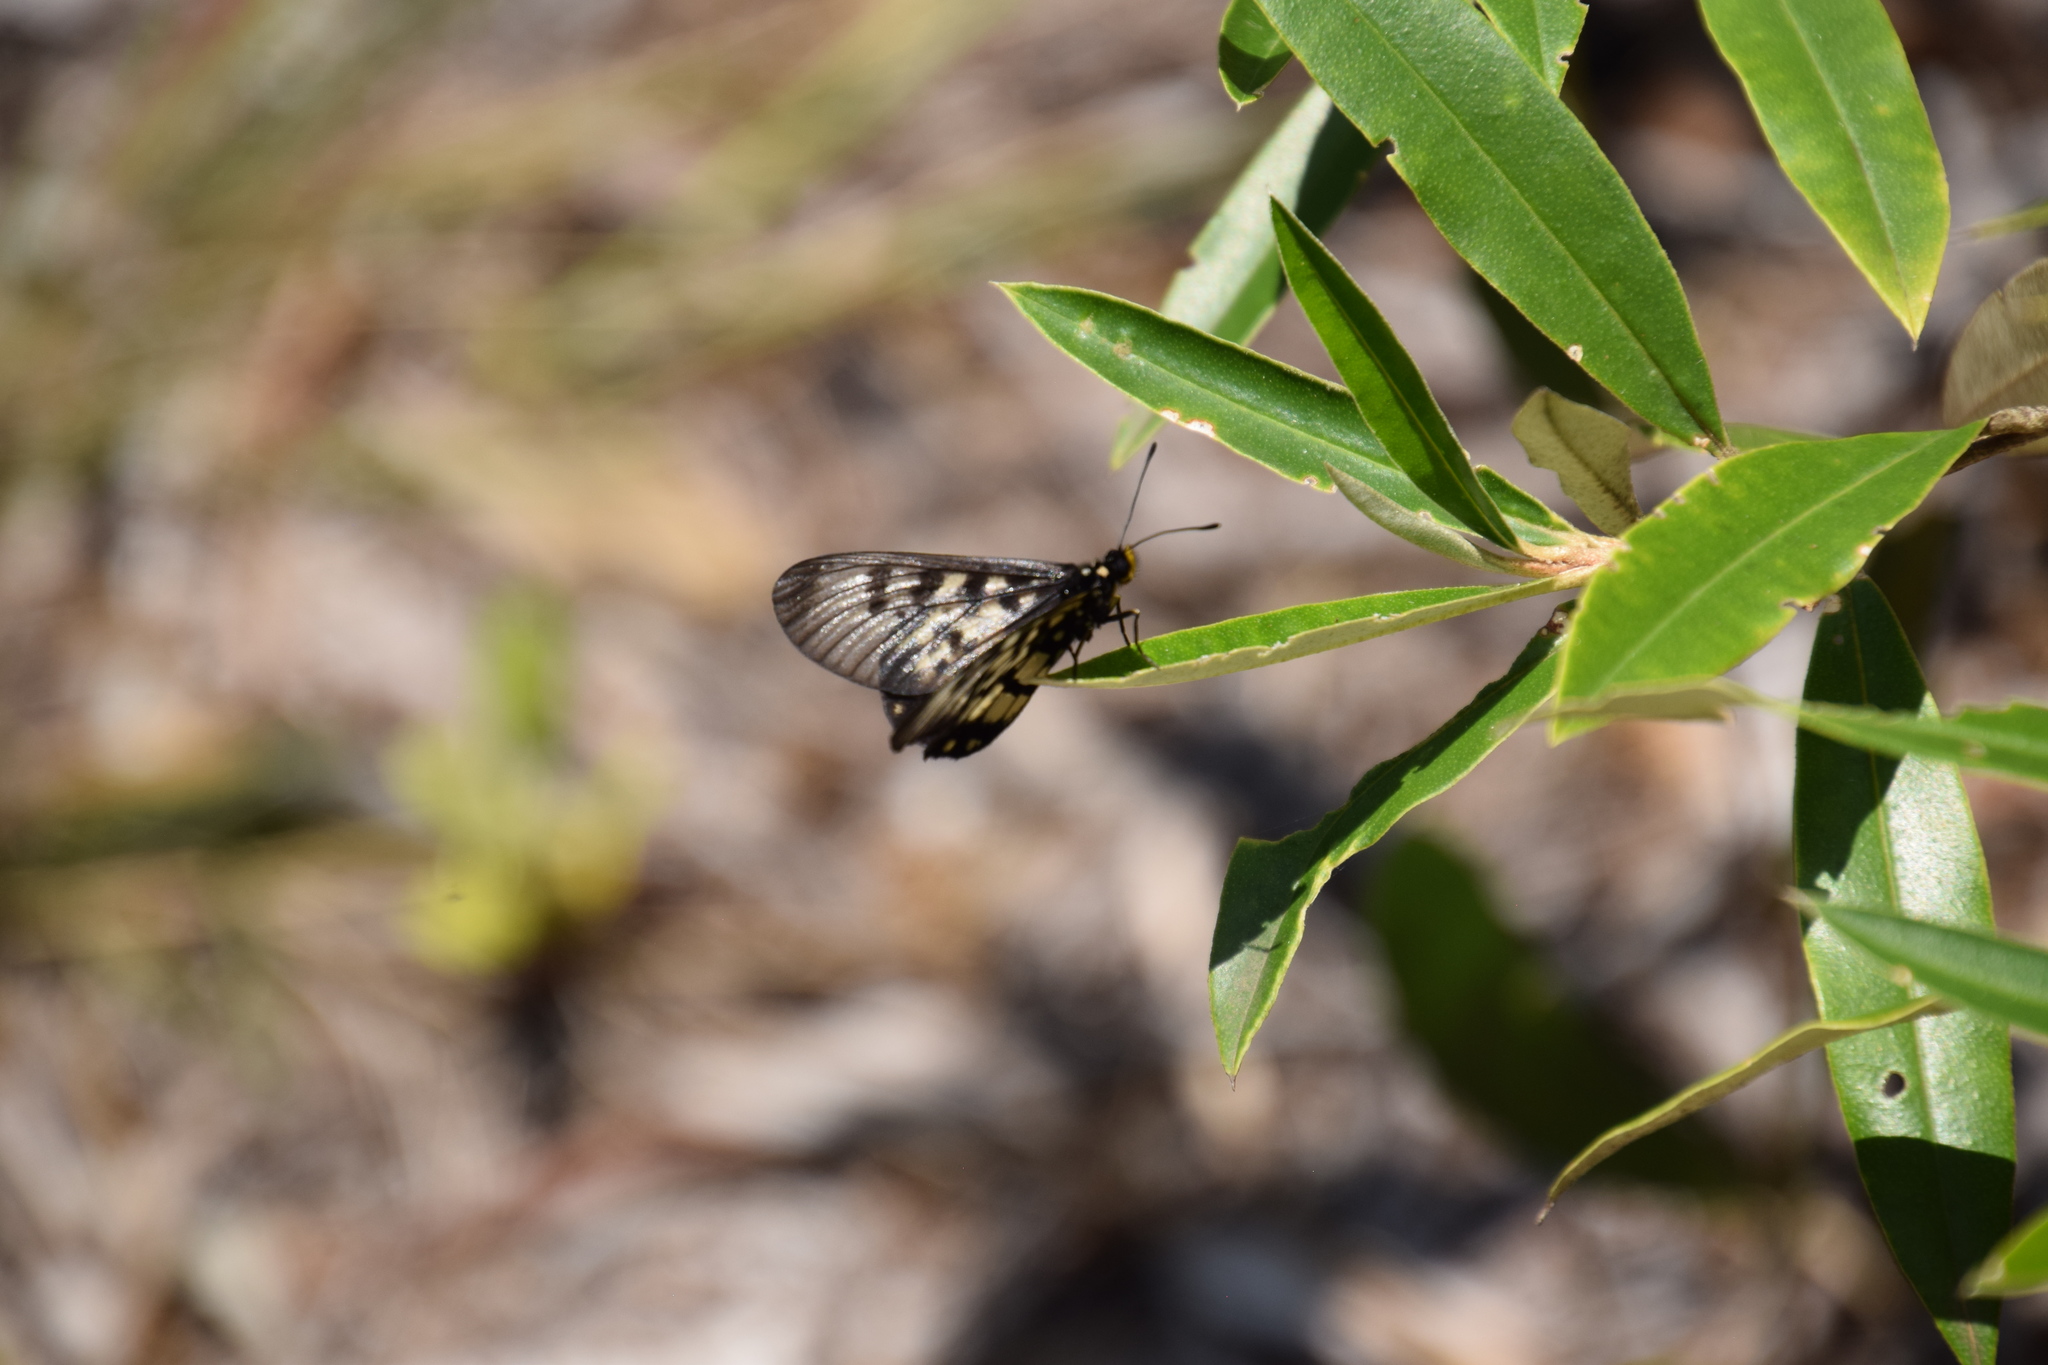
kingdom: Animalia
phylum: Arthropoda
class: Insecta
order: Lepidoptera
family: Nymphalidae
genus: Acraea
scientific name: Acraea andromacha
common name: Glasswing
